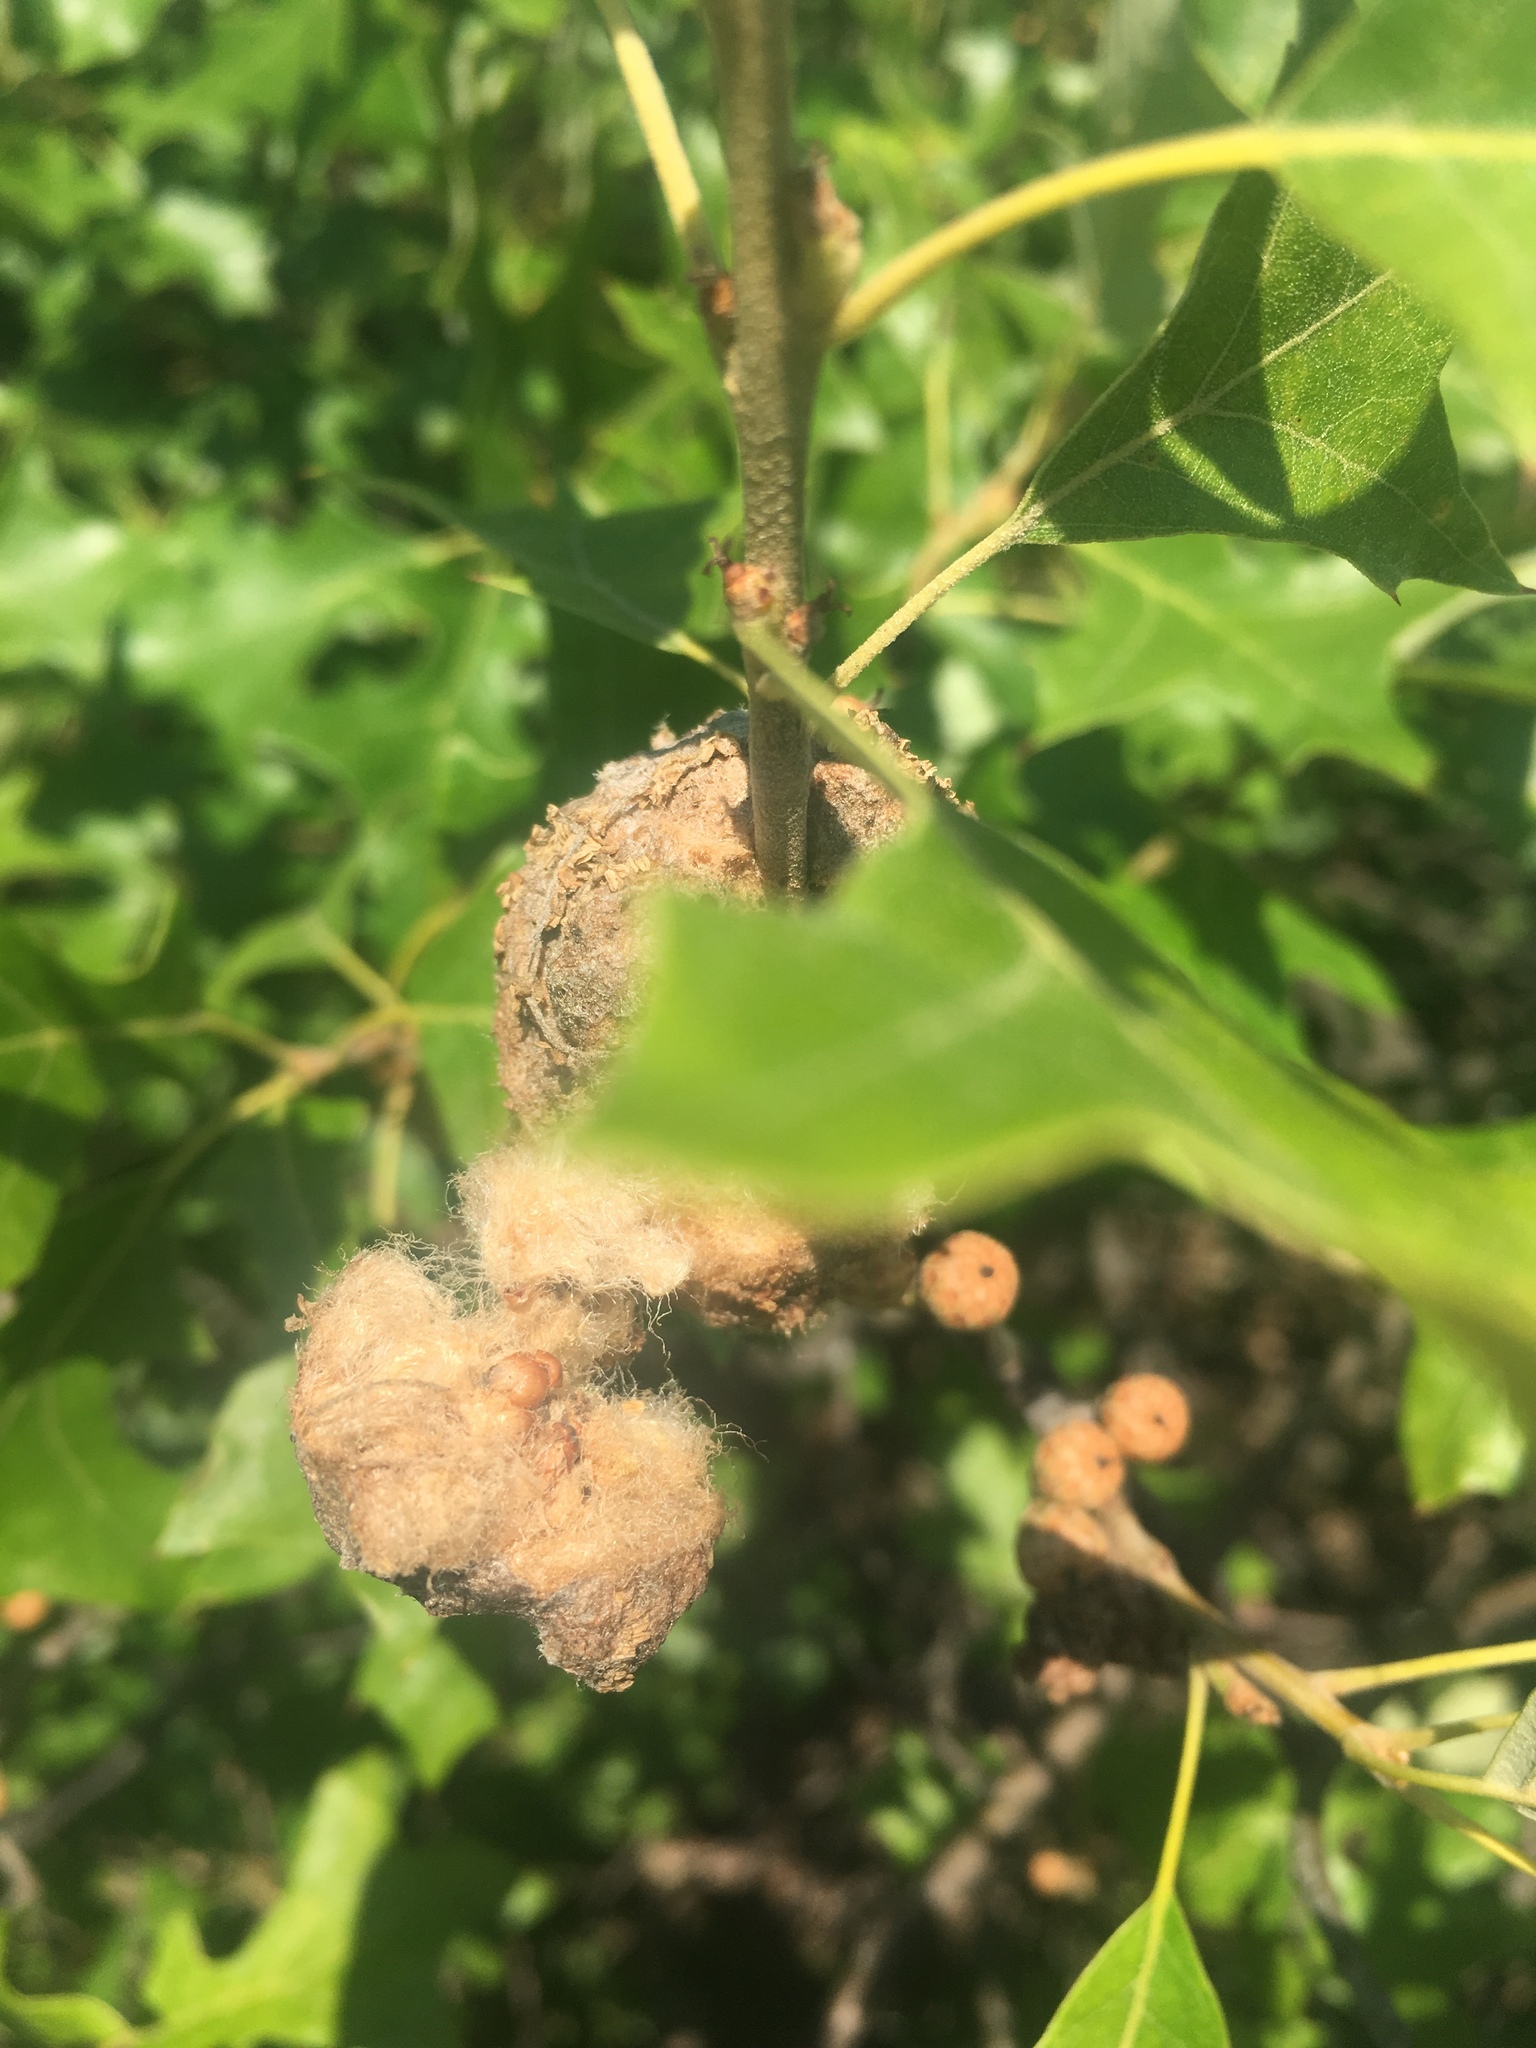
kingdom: Plantae
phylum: Tracheophyta
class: Magnoliopsida
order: Fagales
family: Fagaceae
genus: Quercus
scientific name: Quercus ilicifolia
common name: Bear oak
